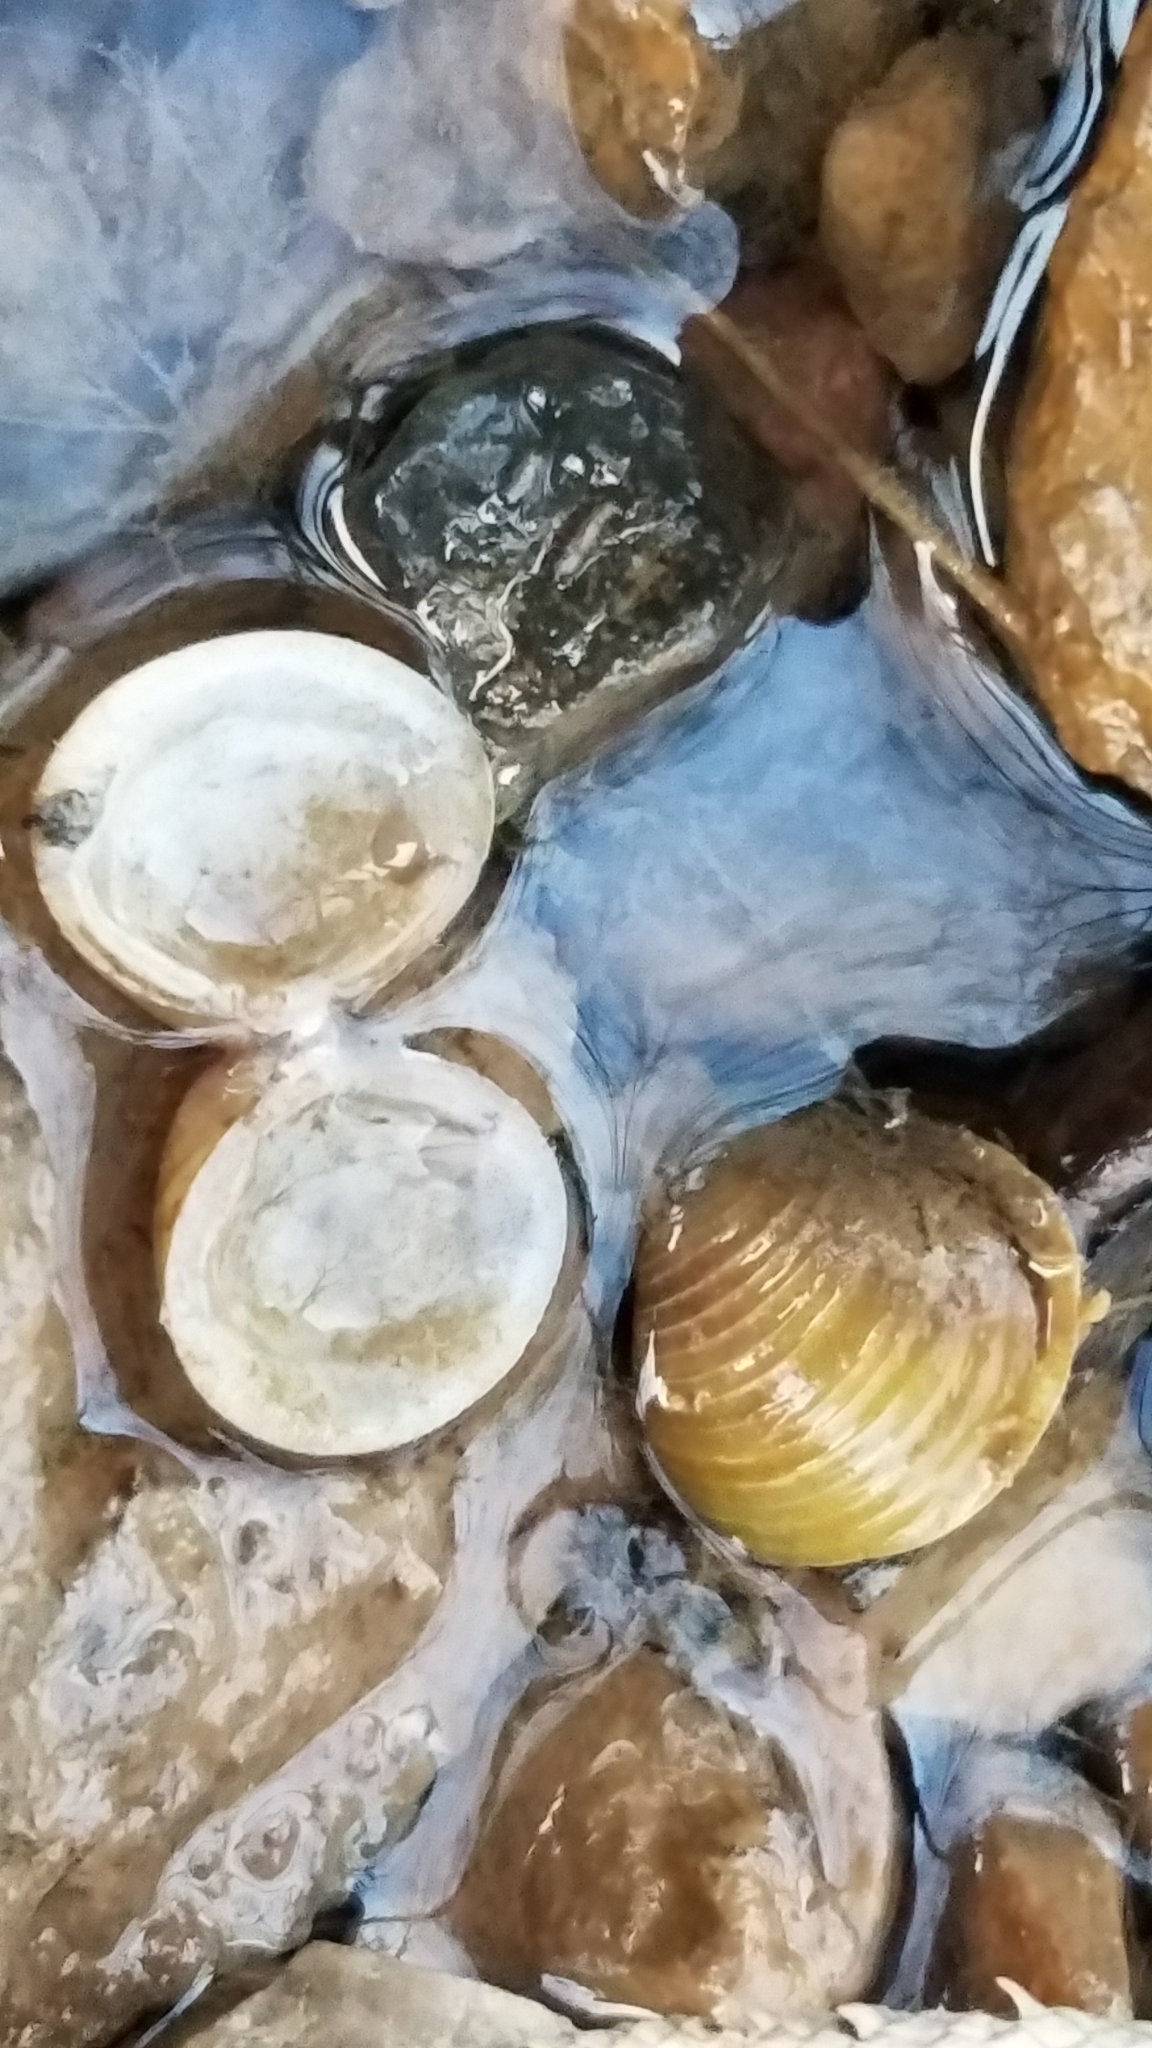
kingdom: Animalia
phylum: Mollusca
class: Bivalvia
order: Venerida
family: Cyrenidae
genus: Corbicula
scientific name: Corbicula fluminea
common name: Asian clam
